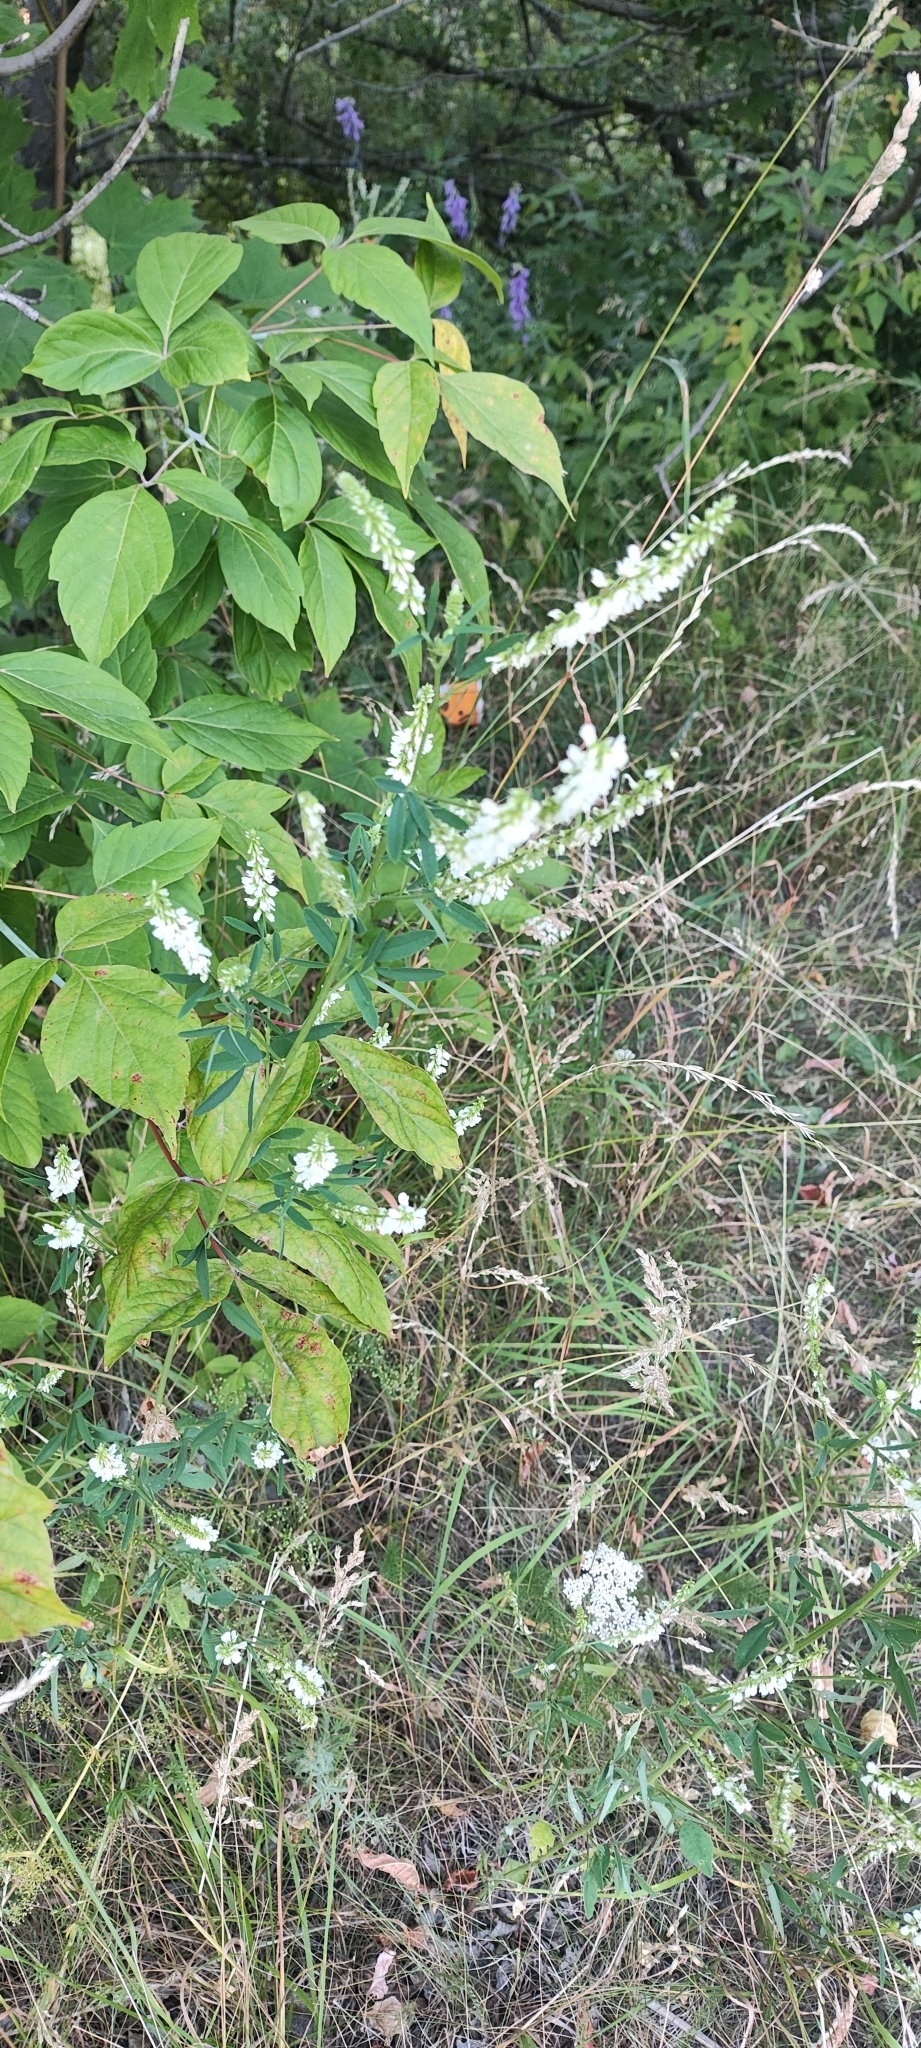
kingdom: Plantae
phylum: Tracheophyta
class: Magnoliopsida
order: Fabales
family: Fabaceae
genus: Melilotus
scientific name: Melilotus albus
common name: White melilot
